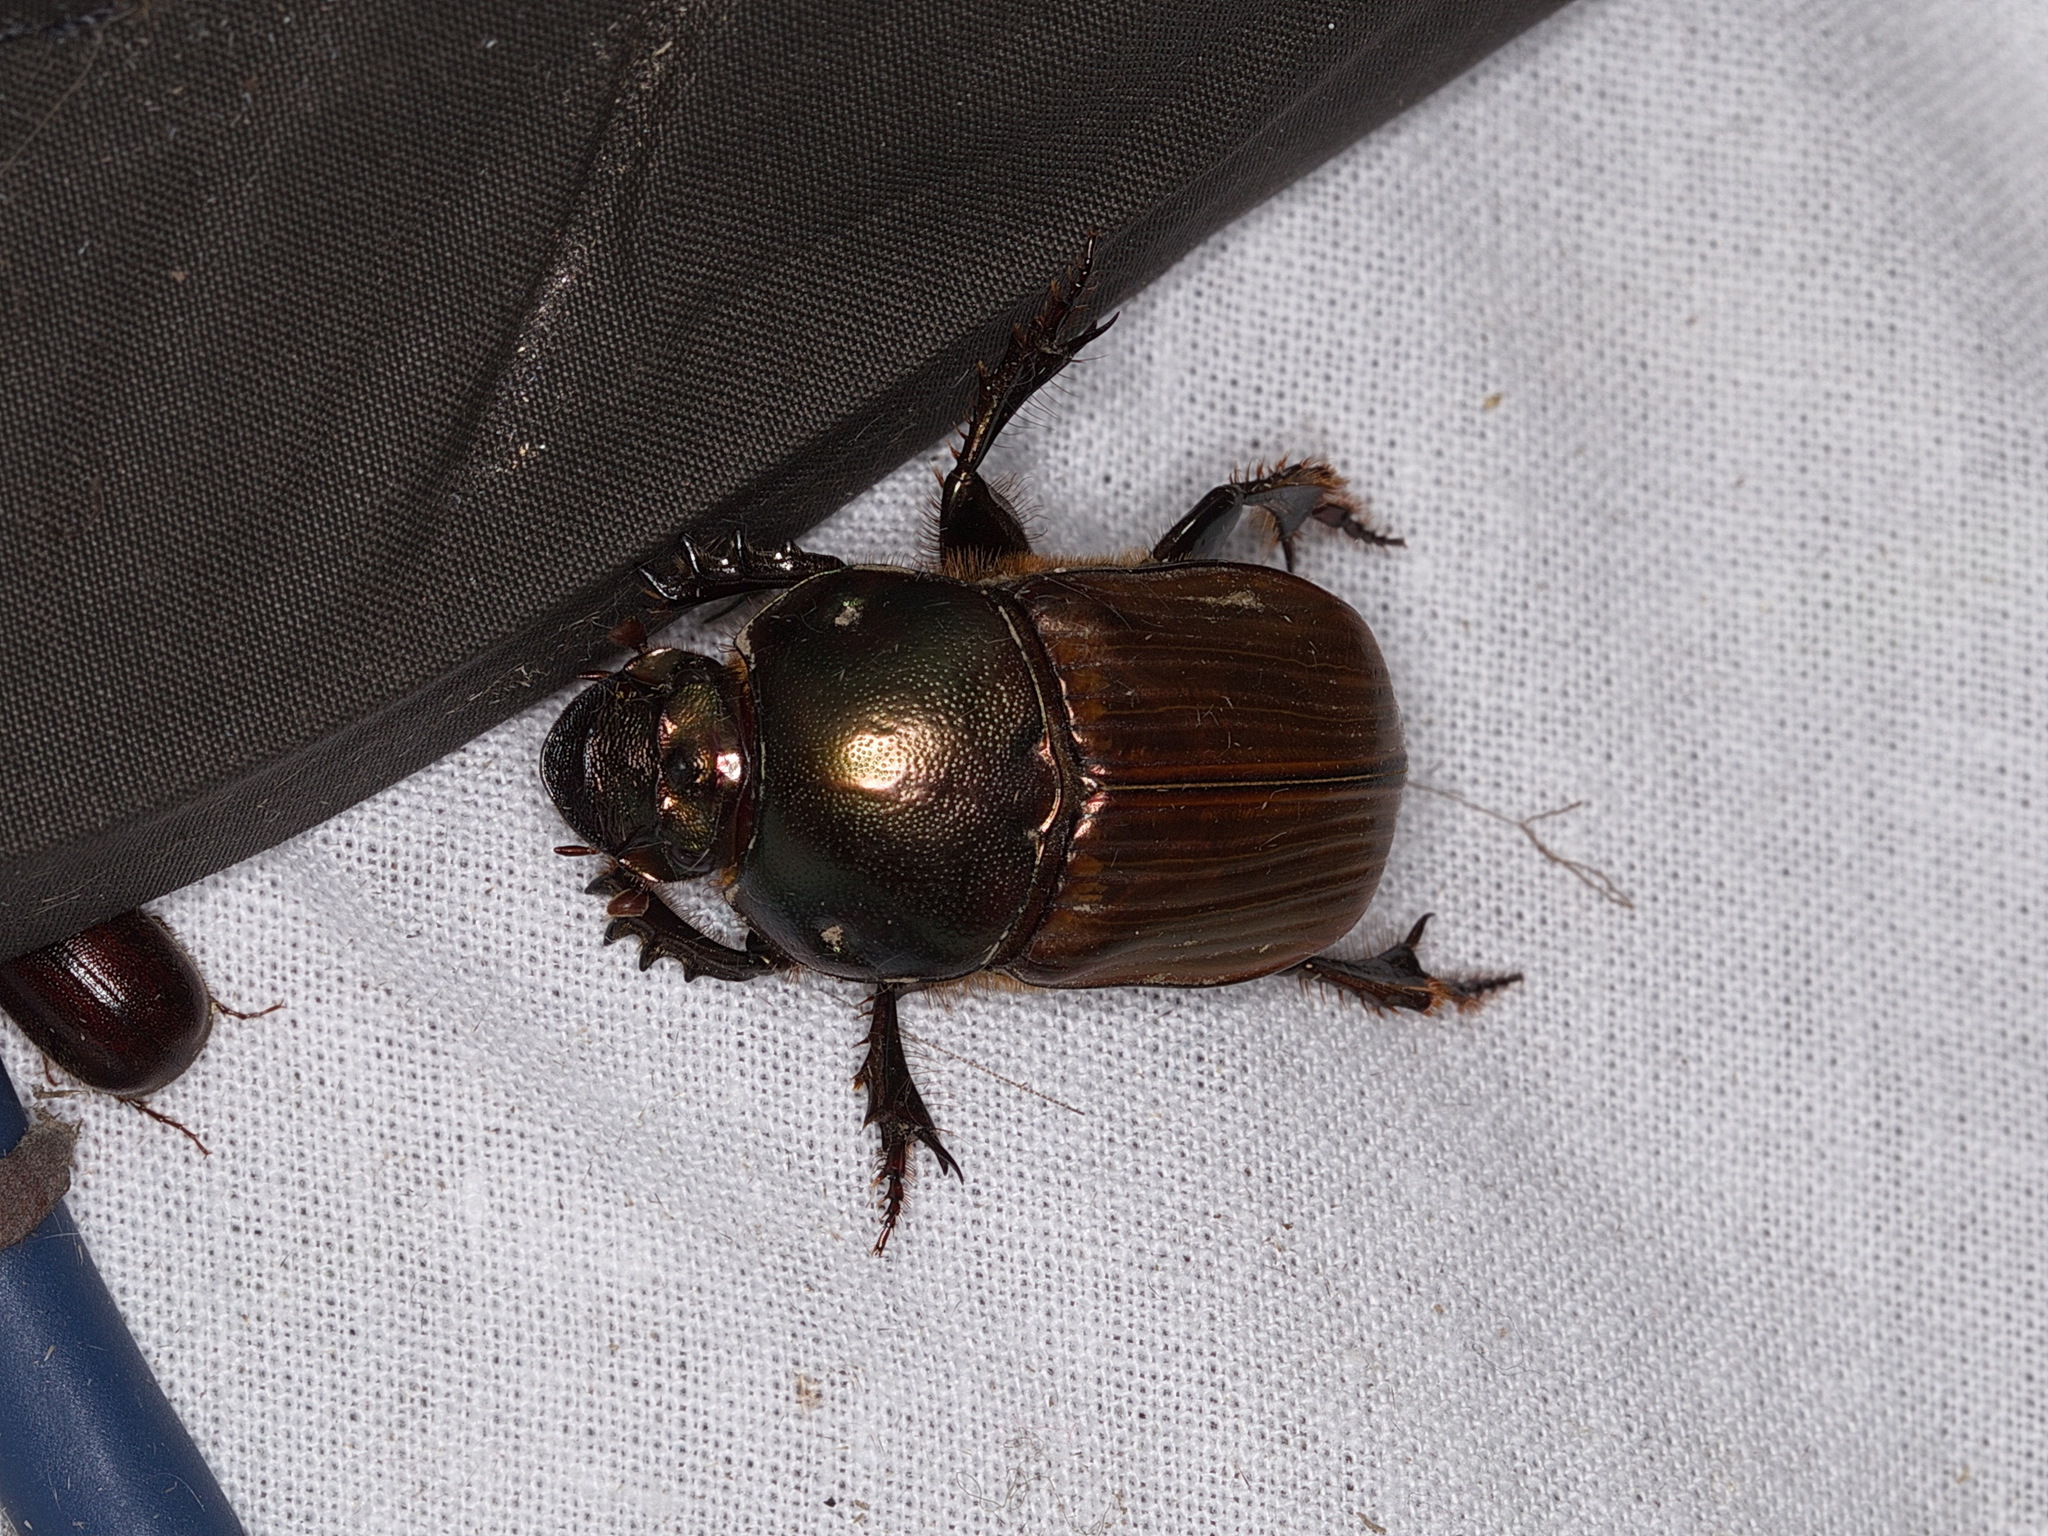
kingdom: Animalia
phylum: Arthropoda
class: Insecta
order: Coleoptera
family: Scarabaeidae
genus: Onitis
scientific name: Onitis aygulus
